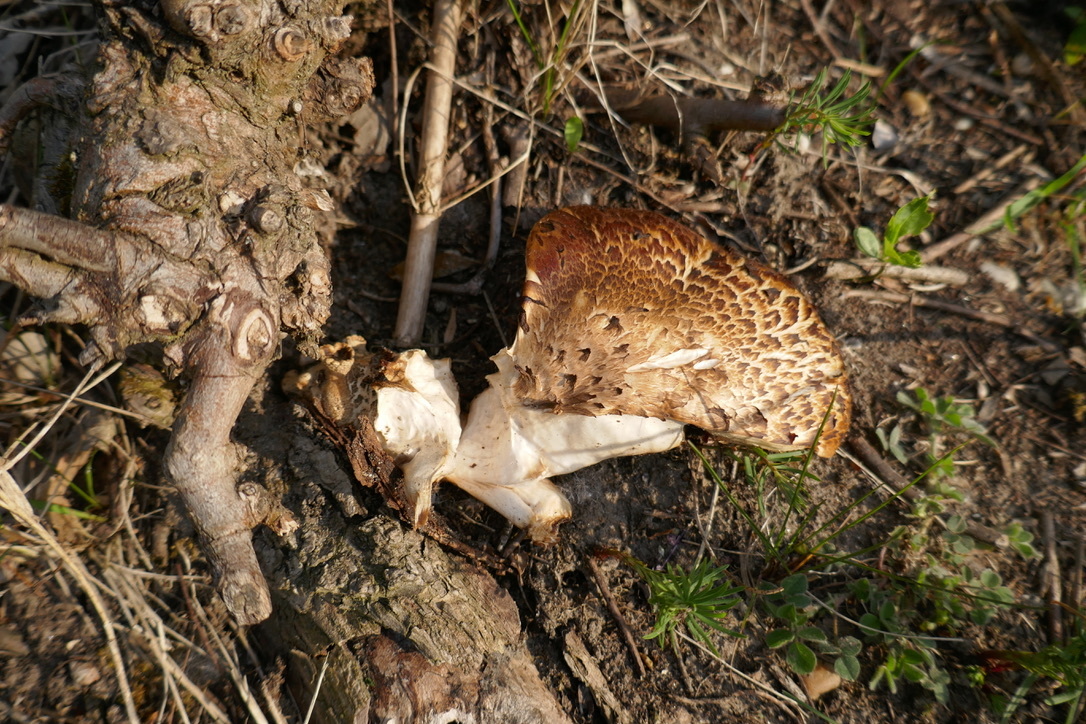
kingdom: Fungi
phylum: Basidiomycota
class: Agaricomycetes
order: Polyporales
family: Polyporaceae
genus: Cerioporus
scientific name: Cerioporus squamosus
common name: Dryad's saddle
